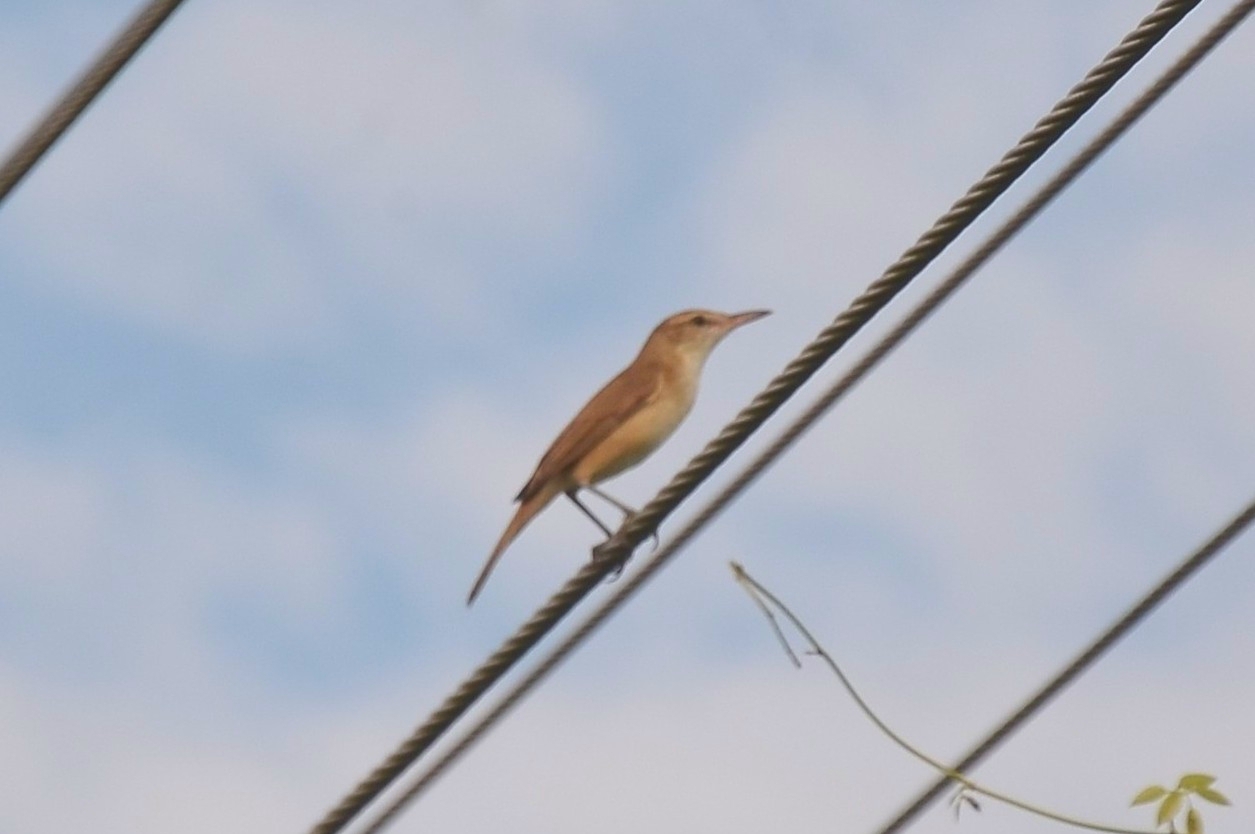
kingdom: Animalia
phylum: Chordata
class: Aves
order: Passeriformes
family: Acrocephalidae
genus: Acrocephalus
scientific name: Acrocephalus stentoreus
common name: Clamorous reed warbler
